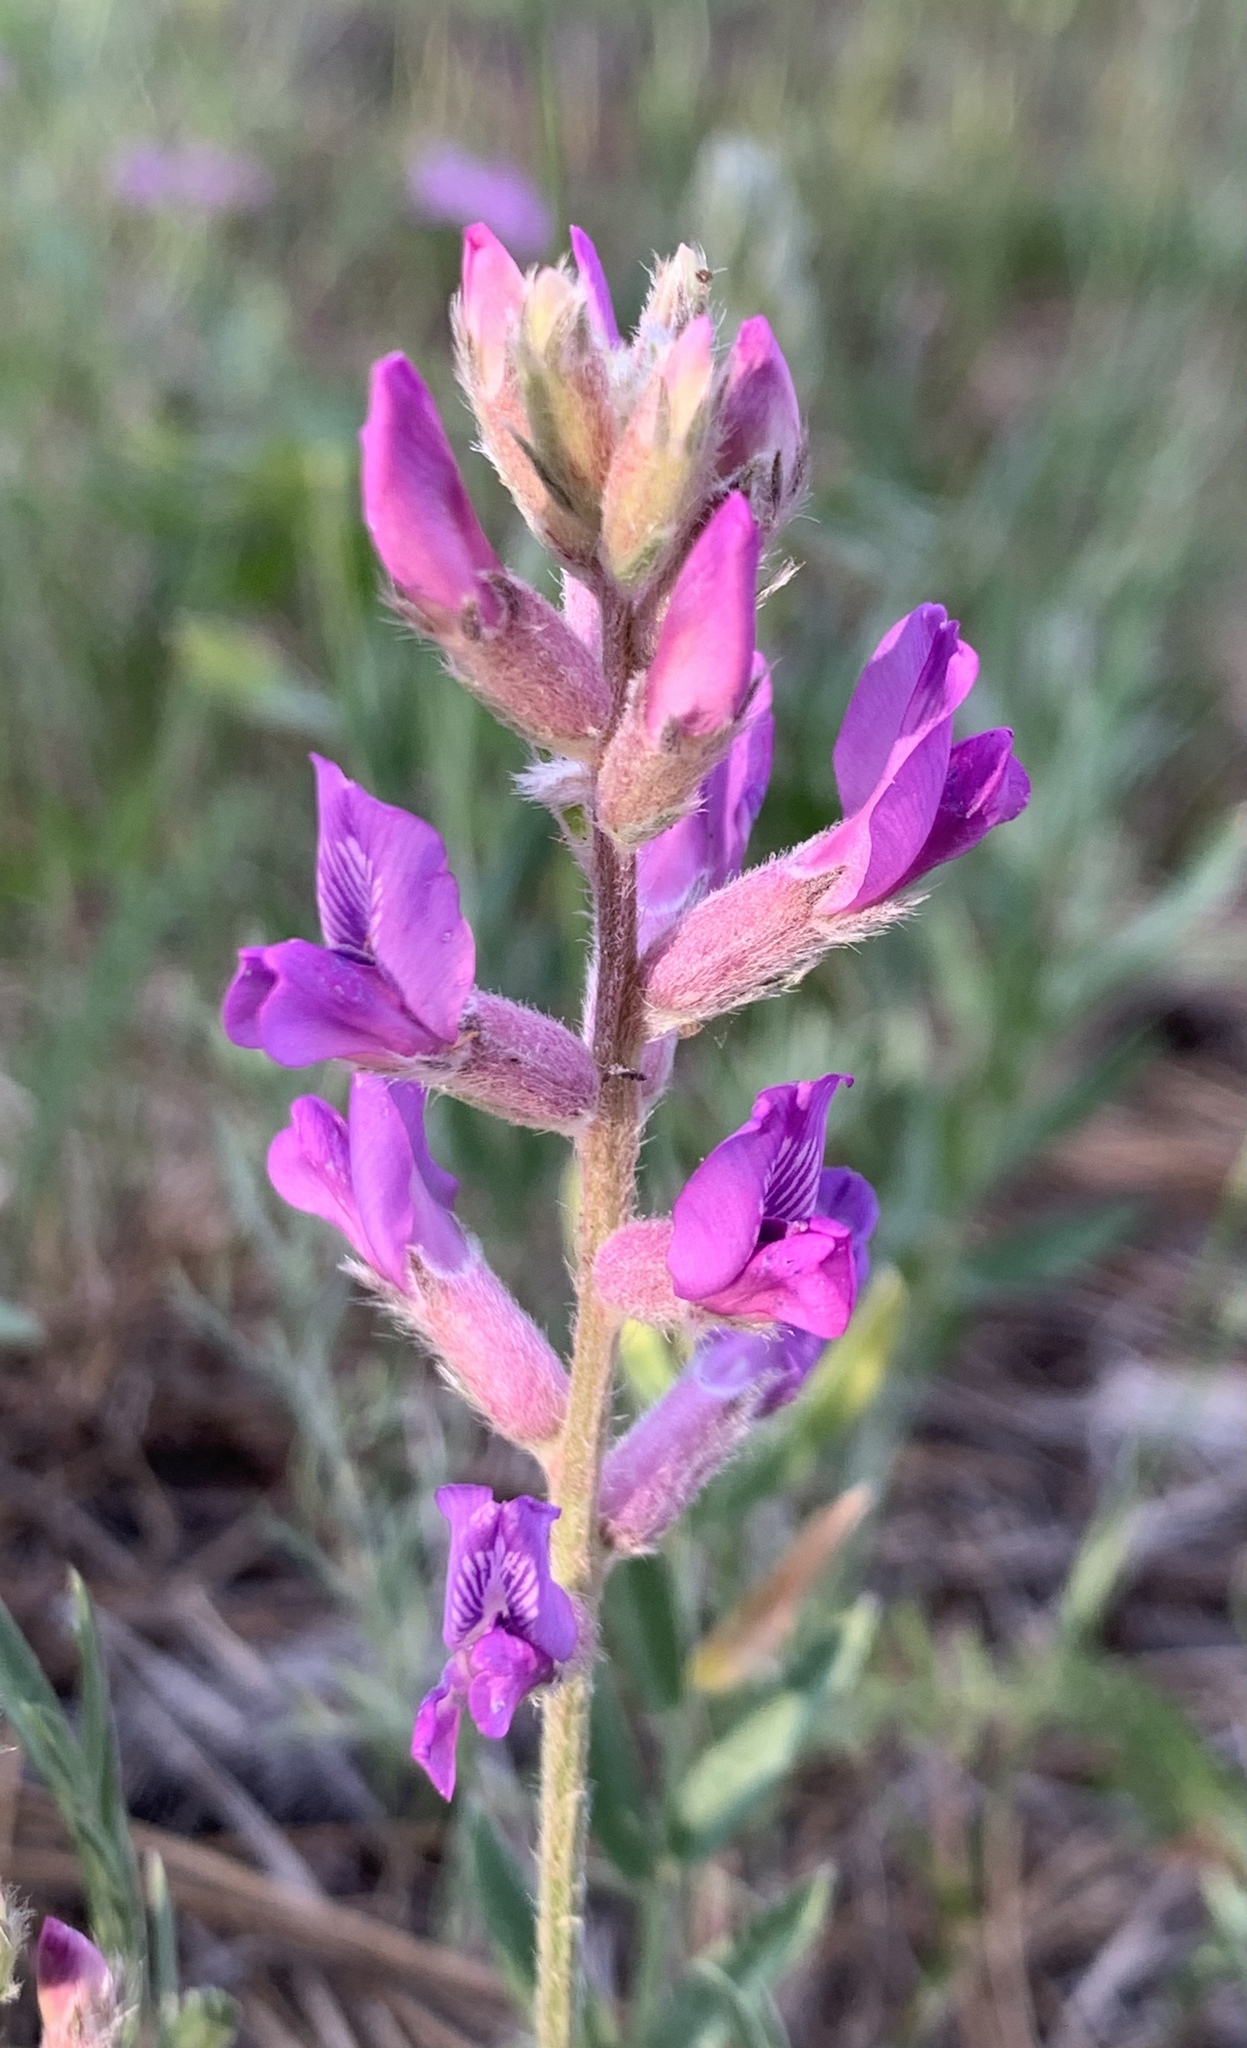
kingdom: Plantae
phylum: Tracheophyta
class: Magnoliopsida
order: Fabales
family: Fabaceae
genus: Oxytropis
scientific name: Oxytropis lambertii
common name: Purple locoweed
